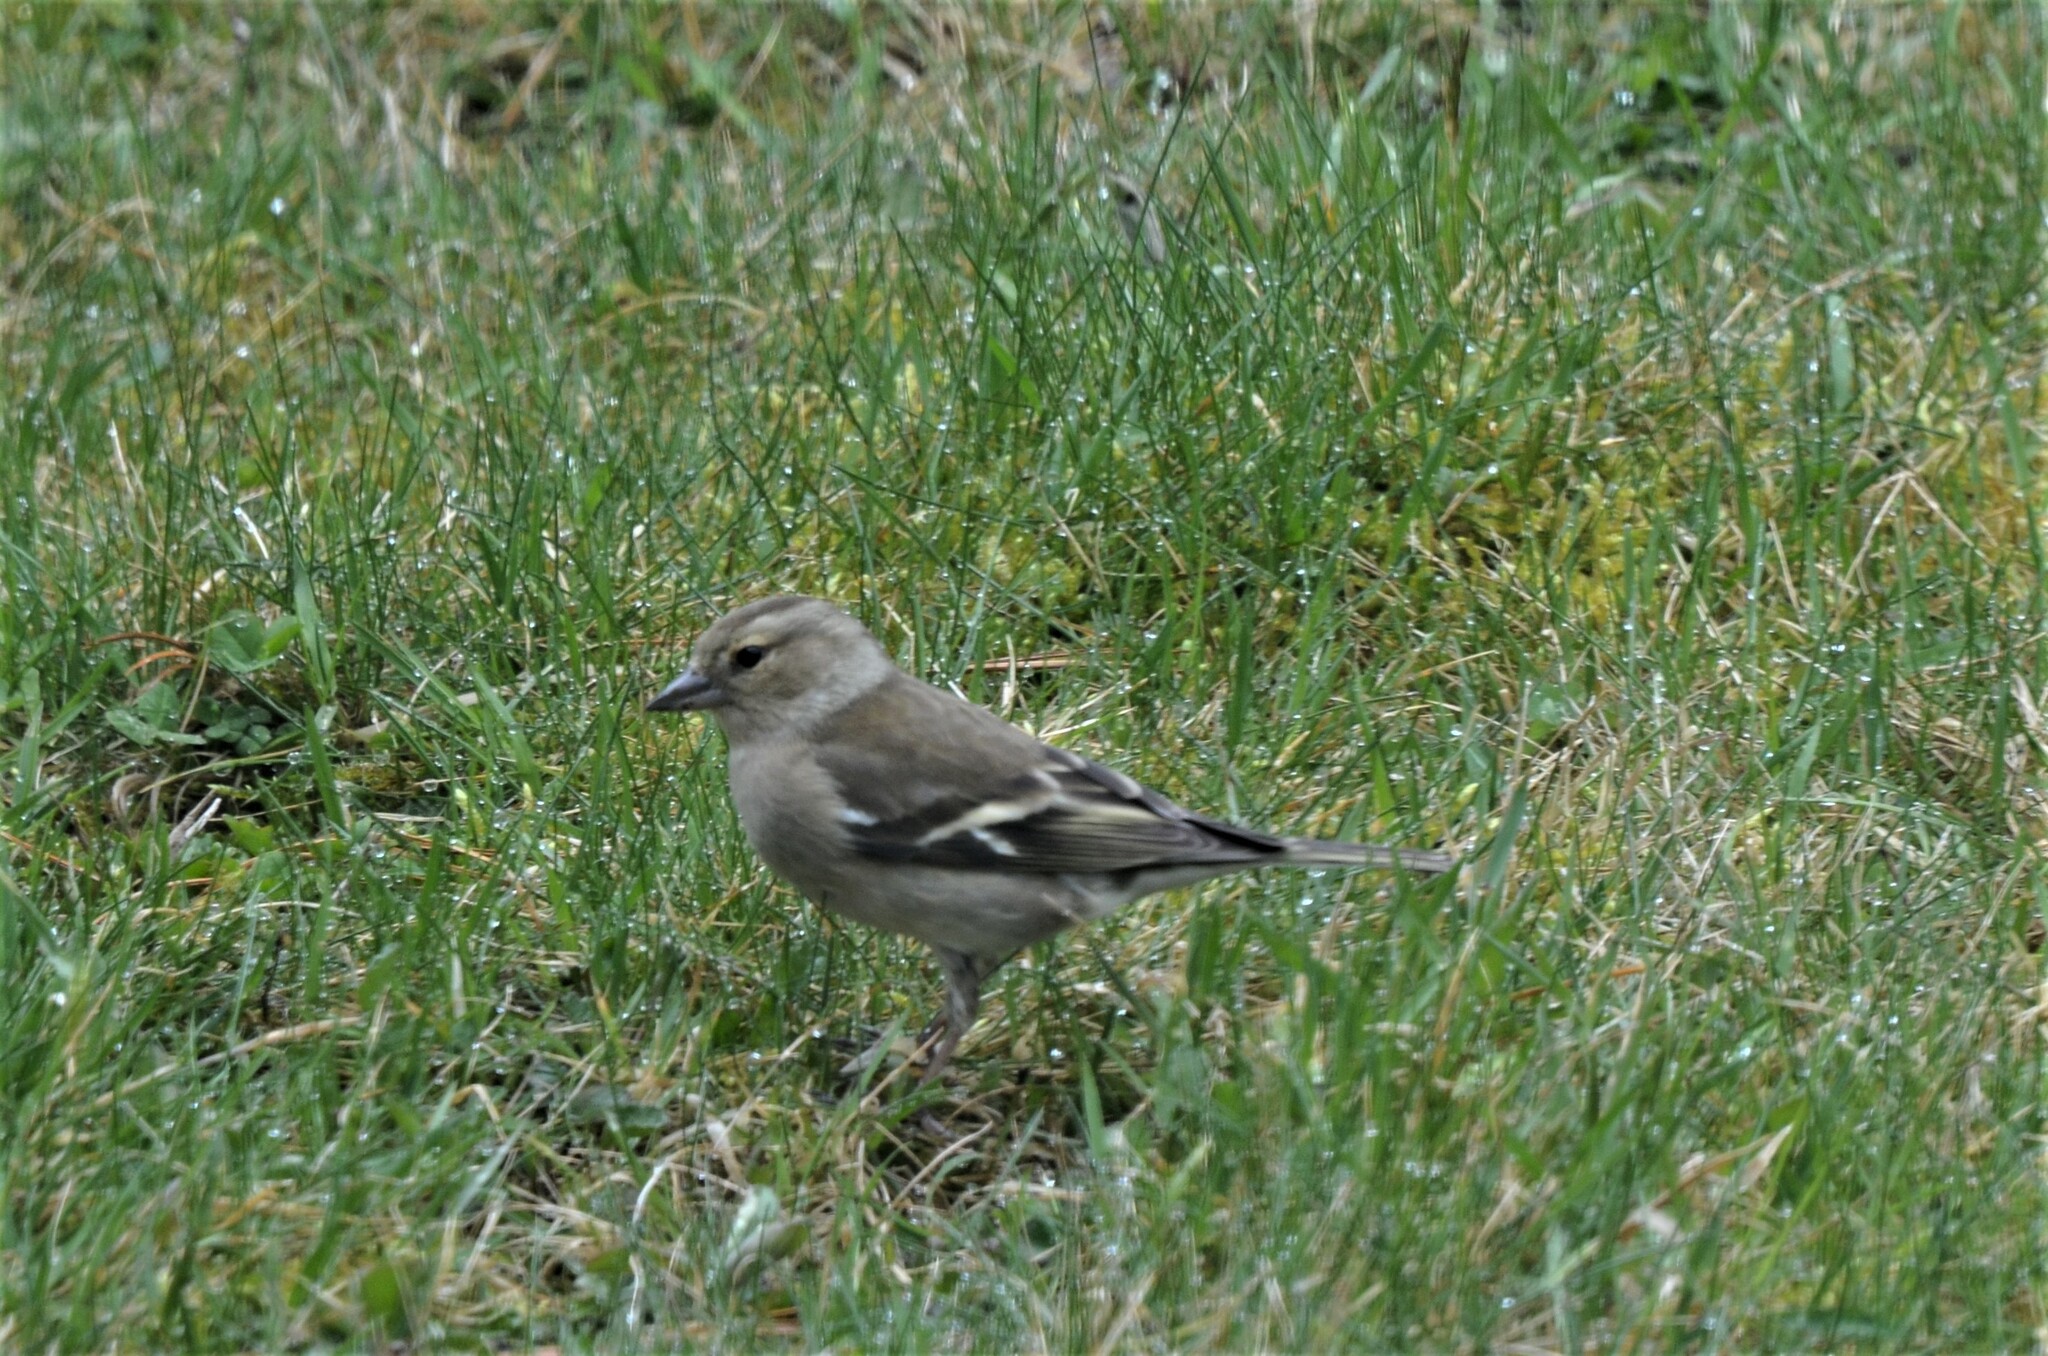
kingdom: Animalia
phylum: Chordata
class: Aves
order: Passeriformes
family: Fringillidae
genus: Fringilla
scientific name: Fringilla coelebs
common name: Common chaffinch
